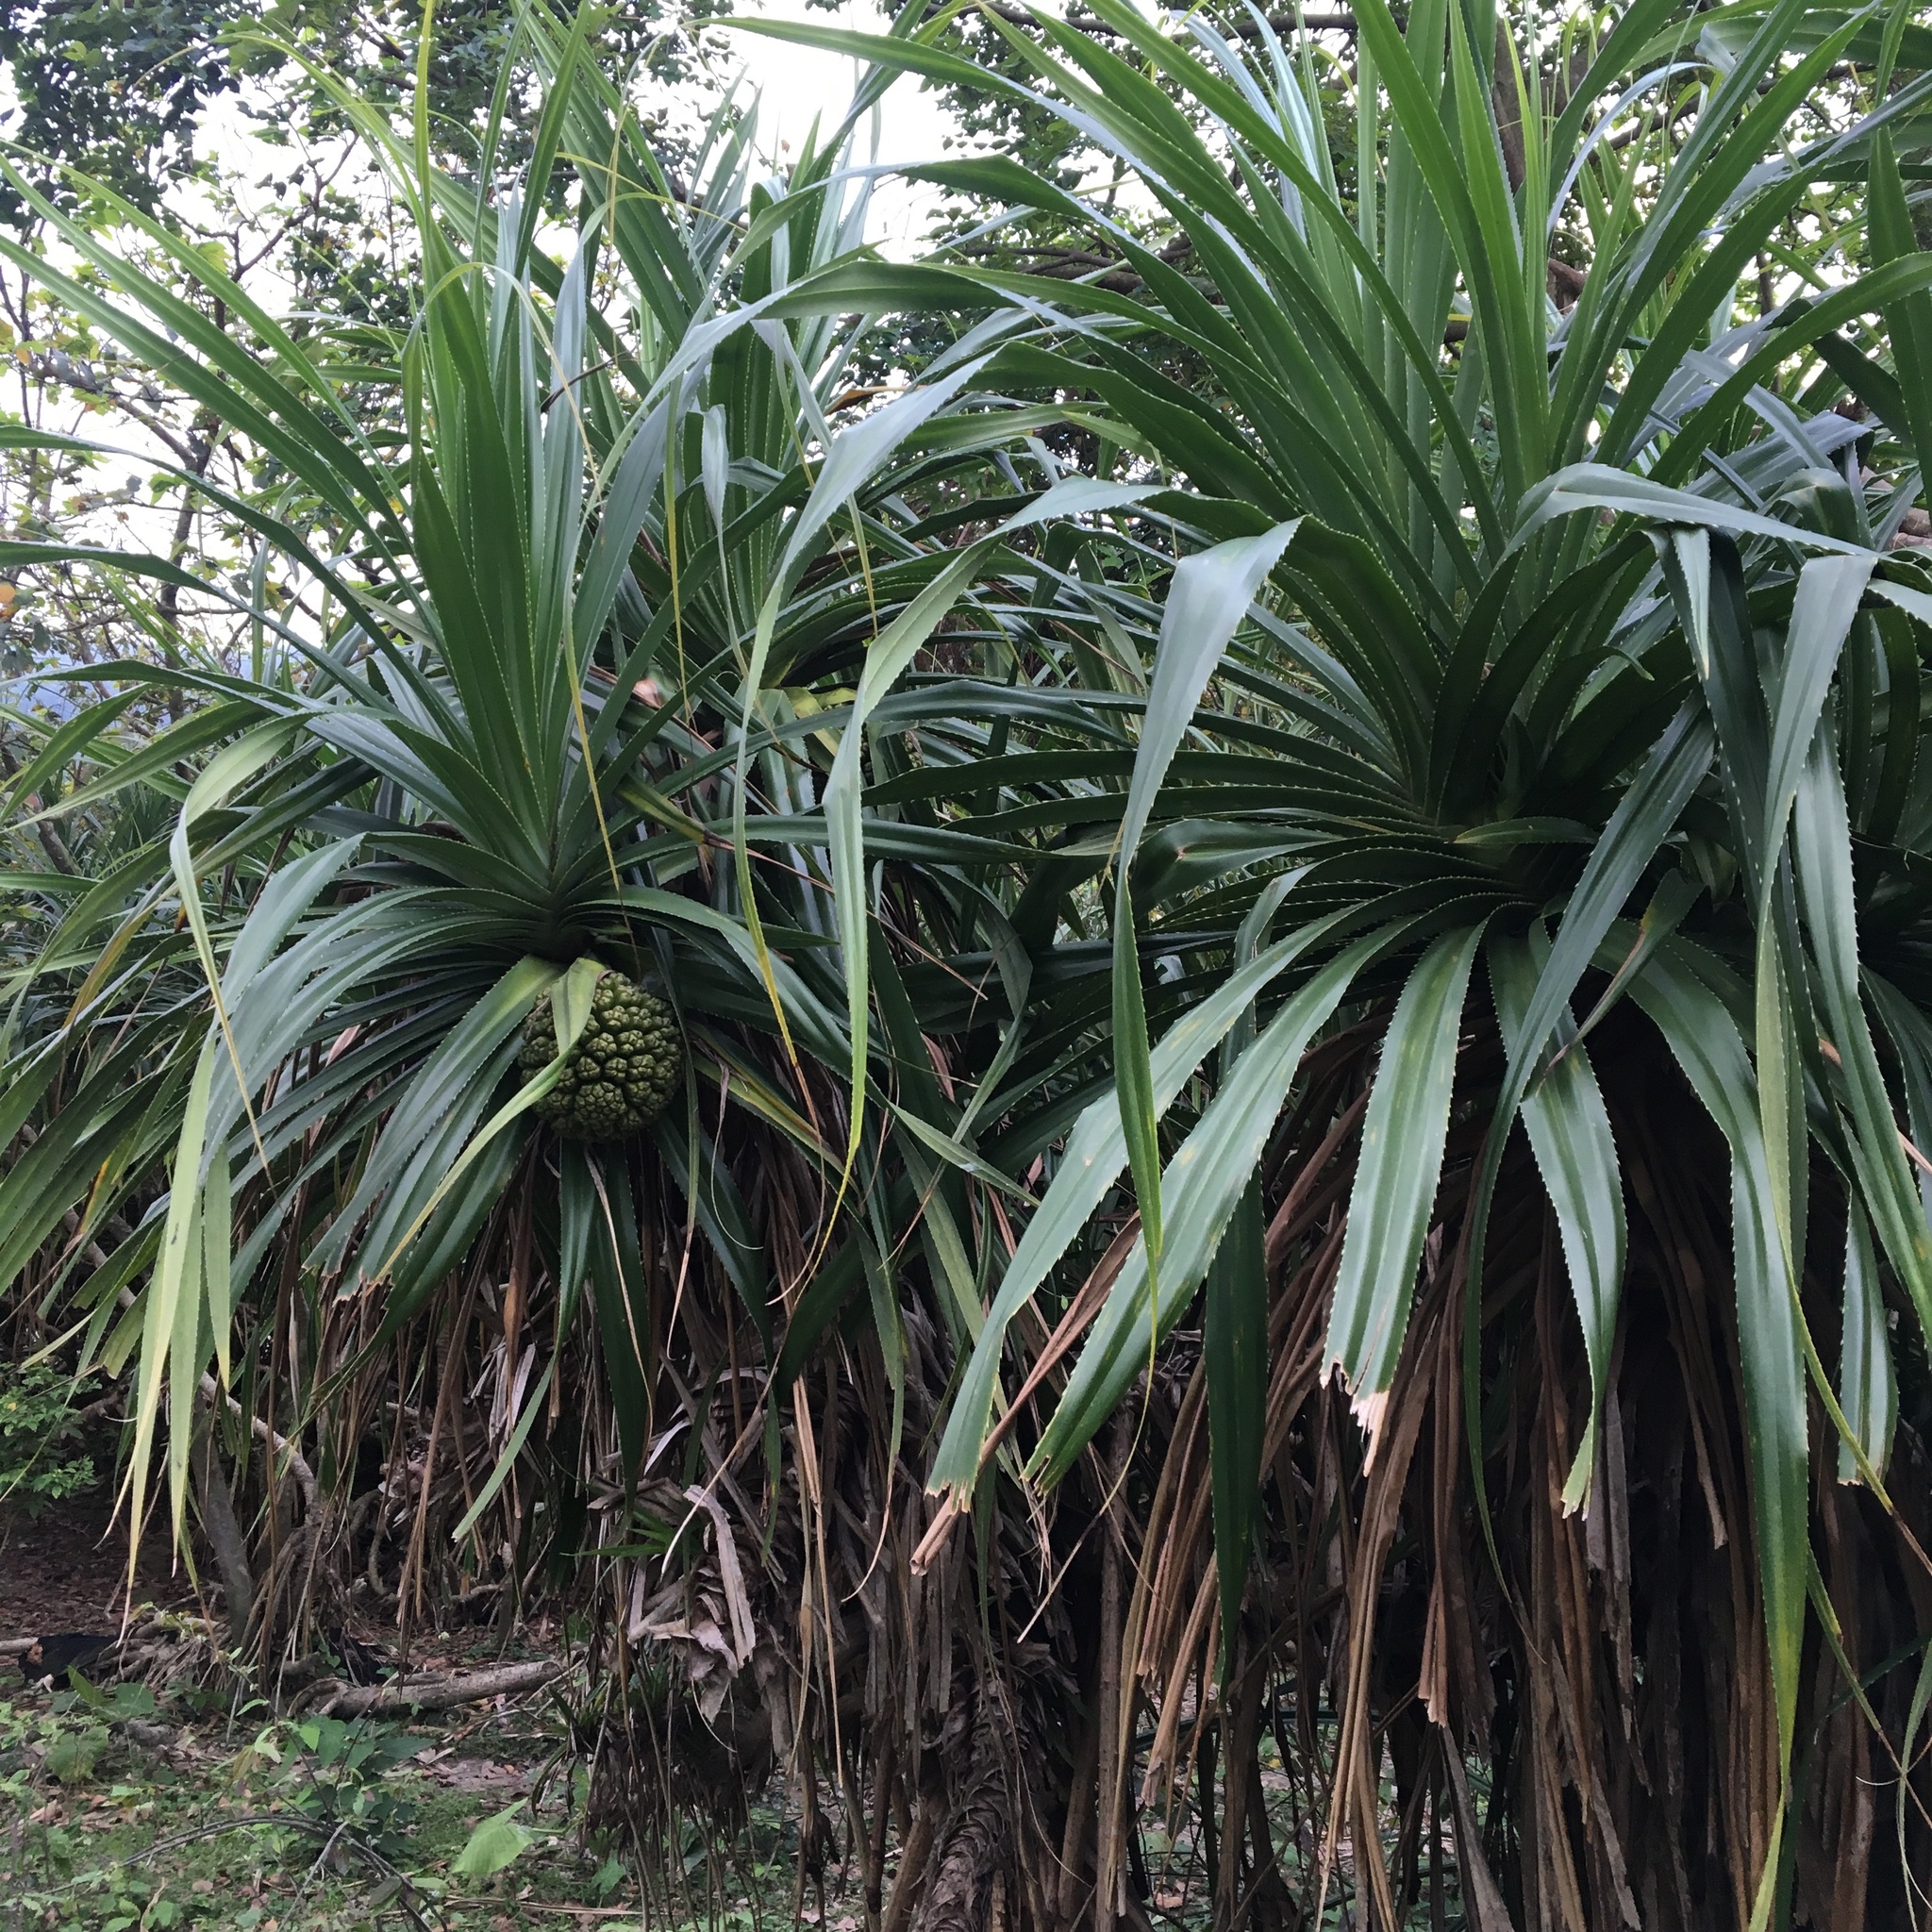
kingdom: Plantae
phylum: Tracheophyta
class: Liliopsida
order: Pandanales
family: Pandanaceae
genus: Pandanus
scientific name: Pandanus tectorius
